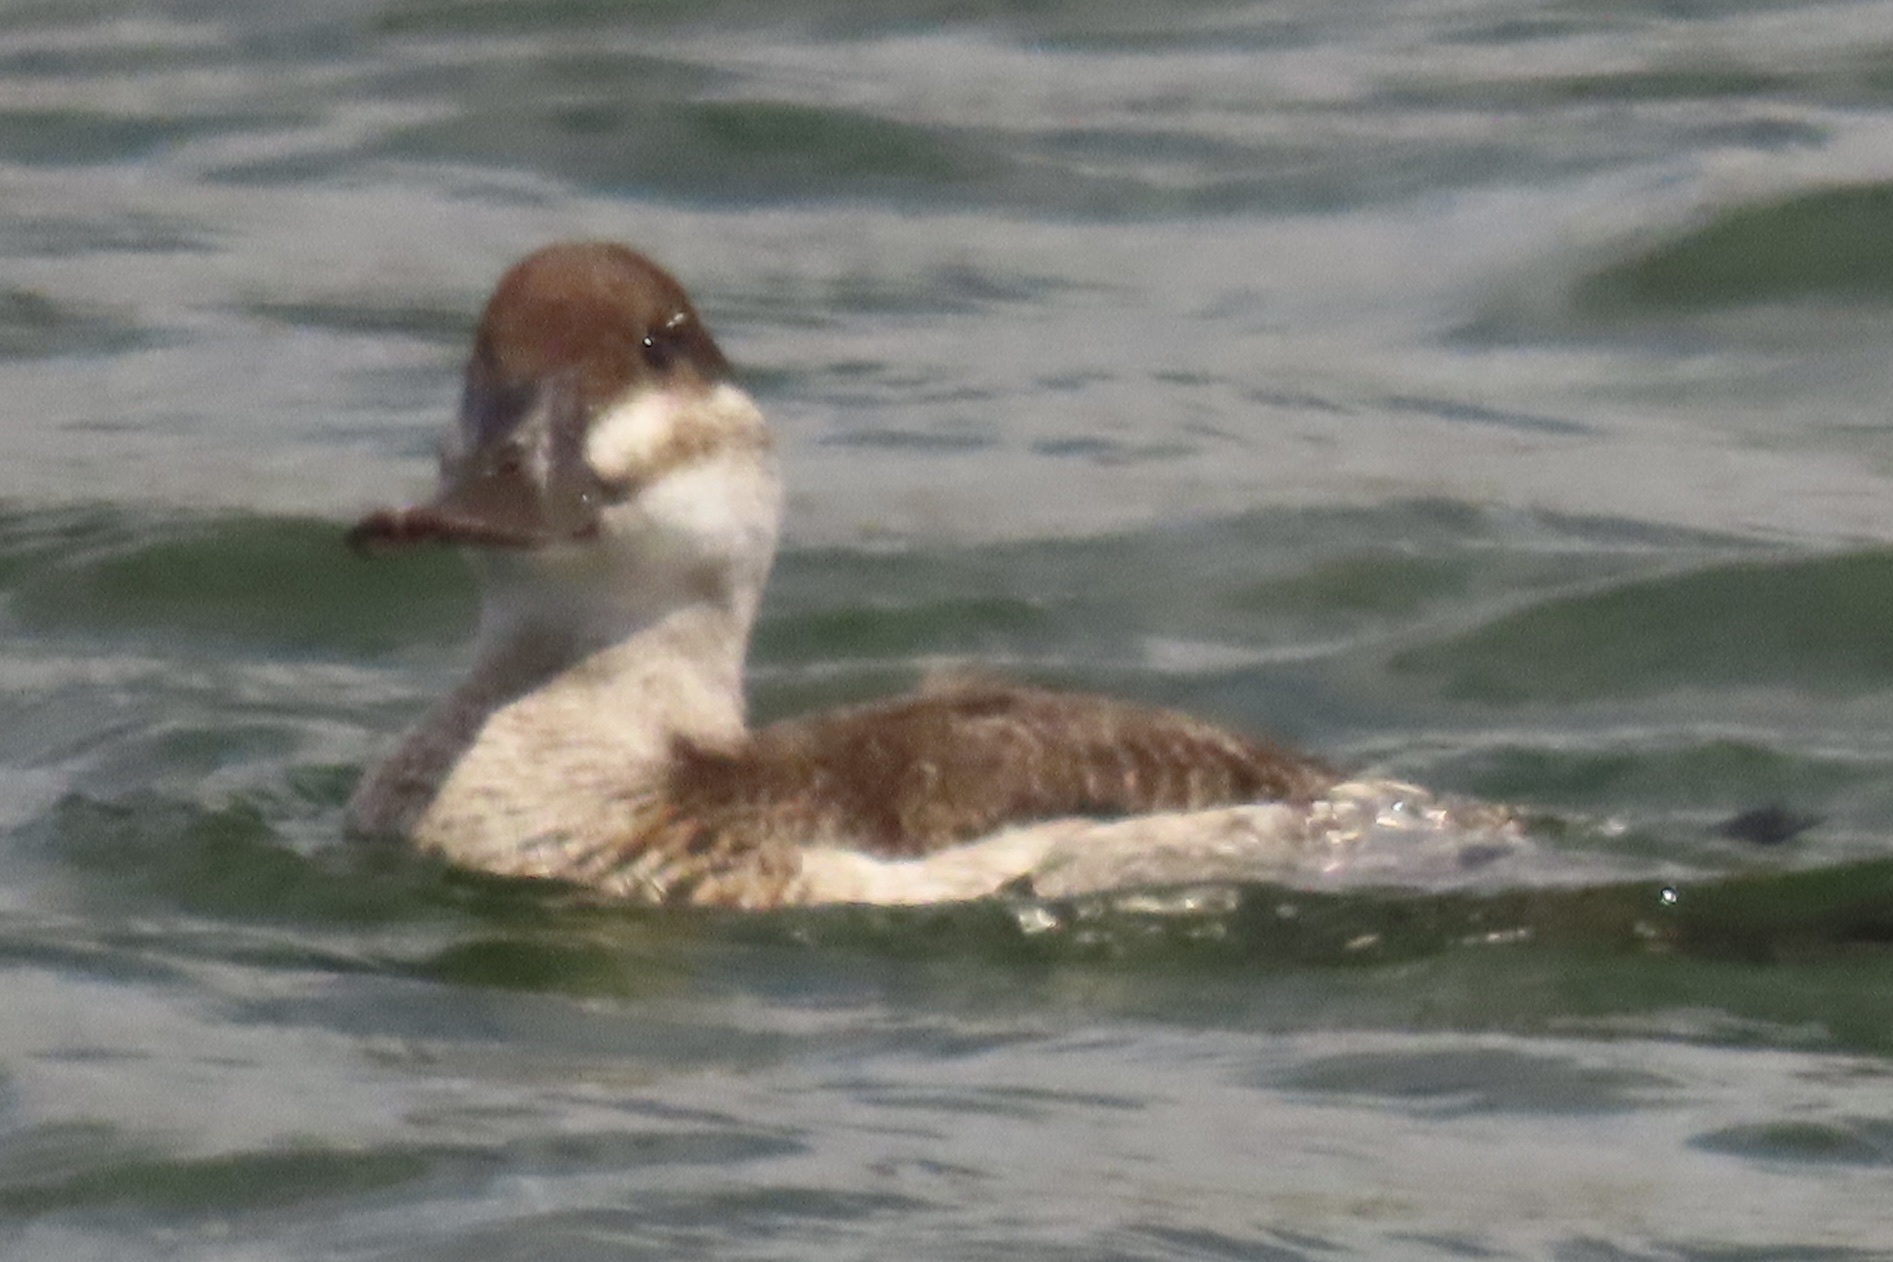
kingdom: Animalia
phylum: Chordata
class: Aves
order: Anseriformes
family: Anatidae
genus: Oxyura
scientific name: Oxyura jamaicensis
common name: Ruddy duck
